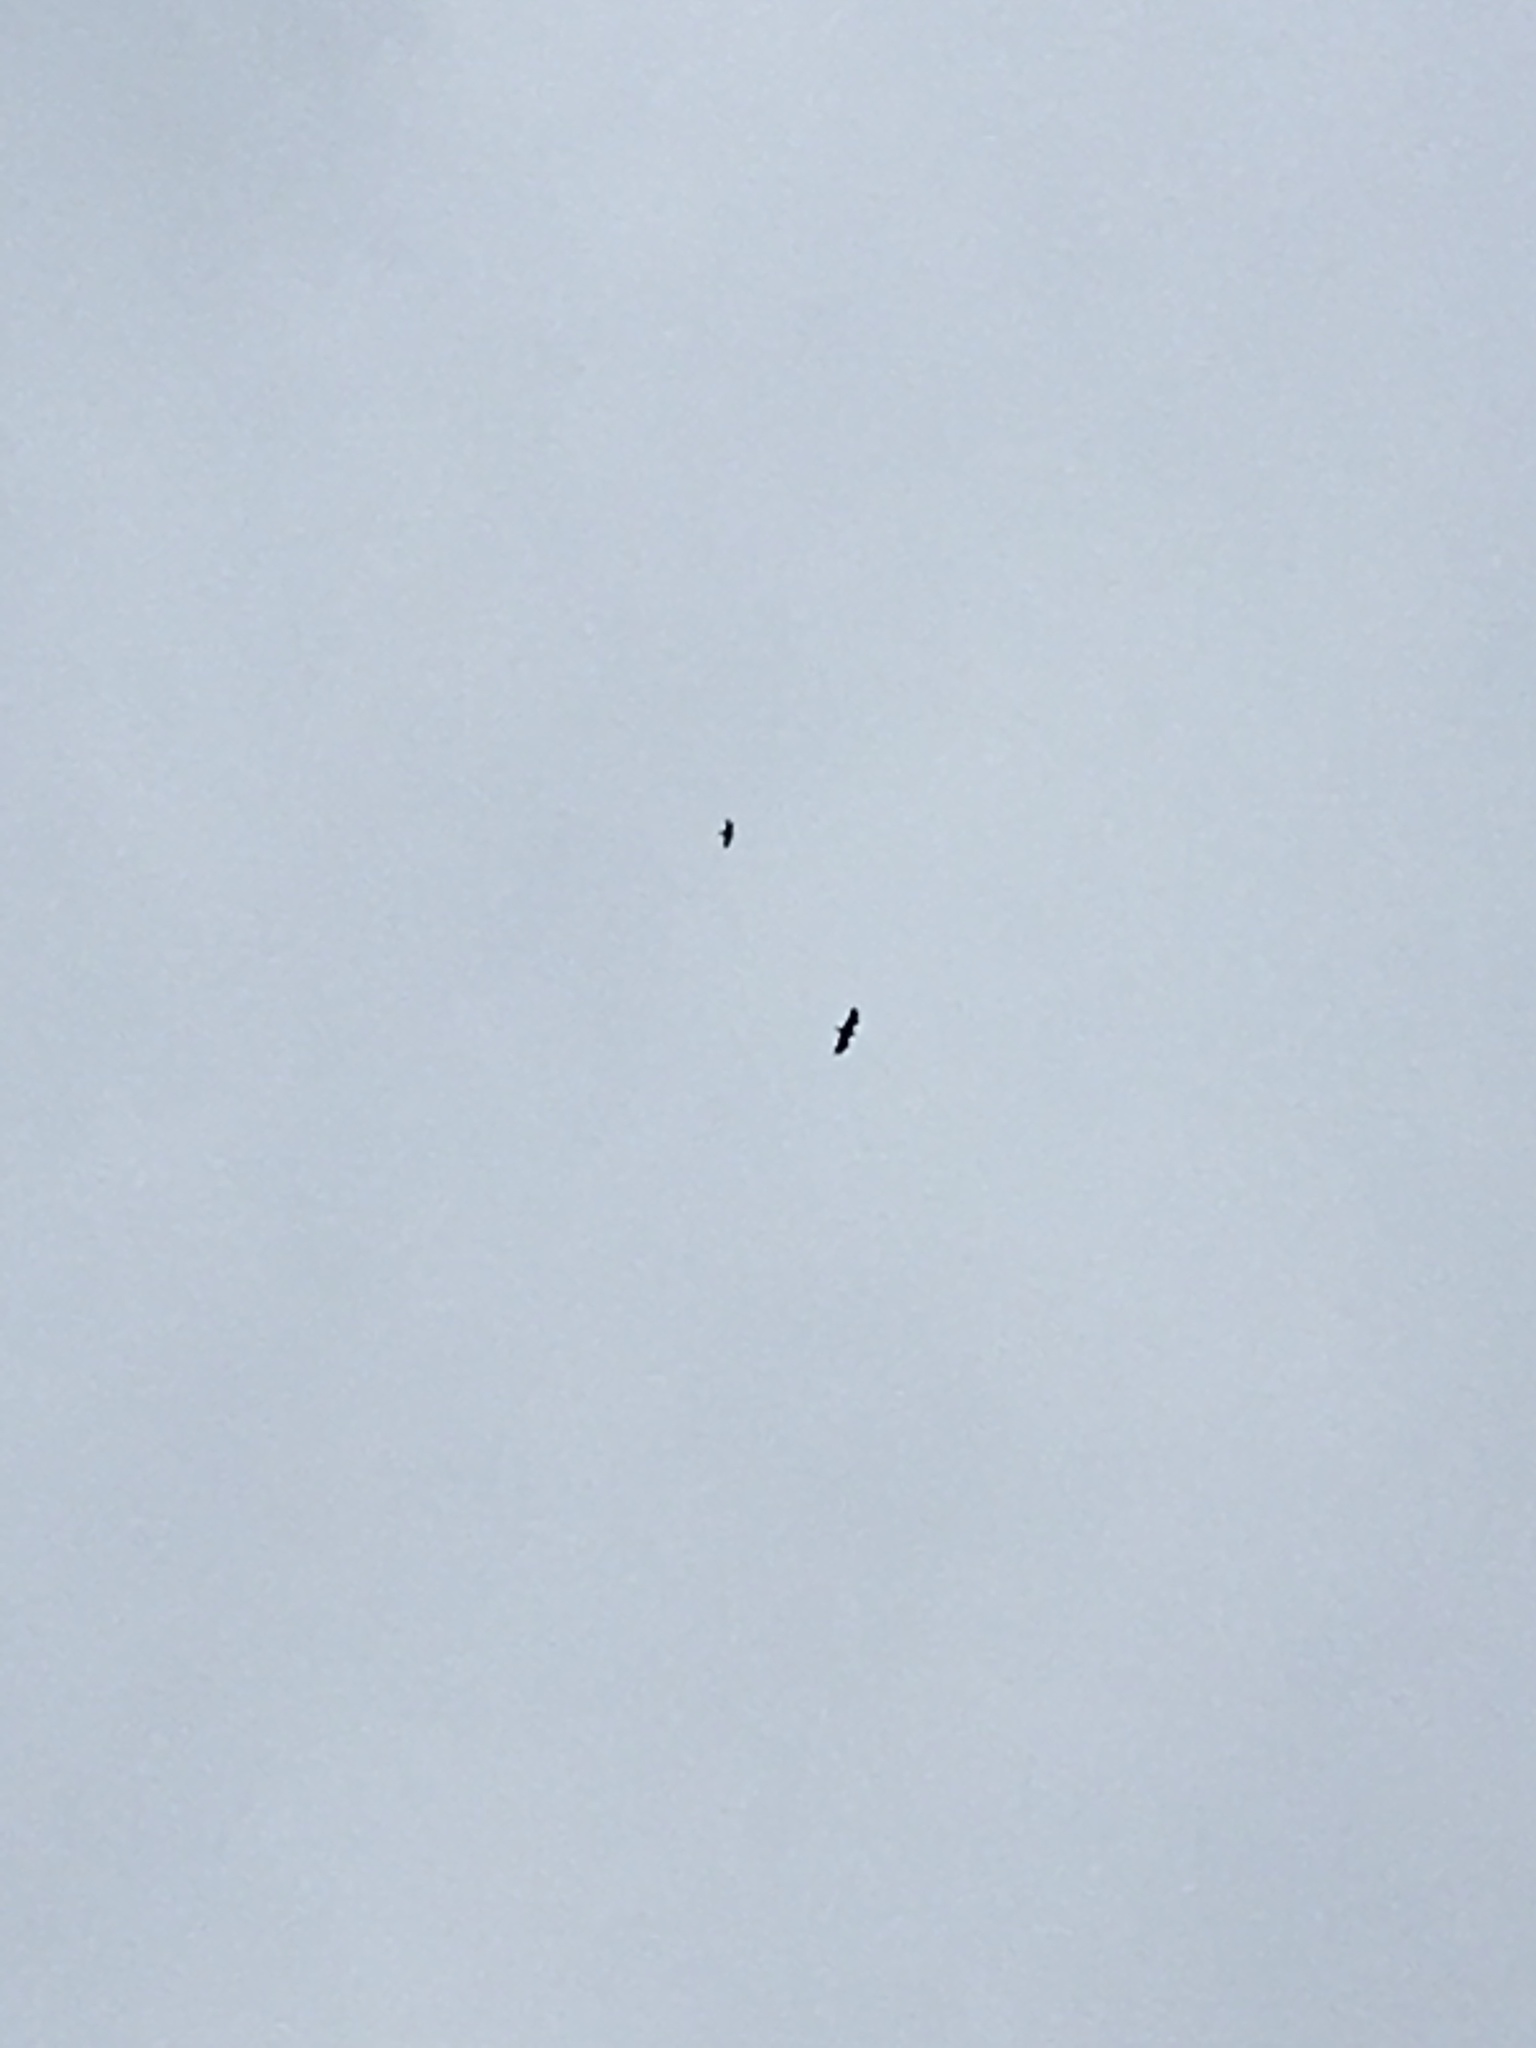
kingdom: Animalia
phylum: Chordata
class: Aves
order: Accipitriformes
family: Accipitridae
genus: Haliaeetus
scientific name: Haliaeetus leucocephalus
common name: Bald eagle
